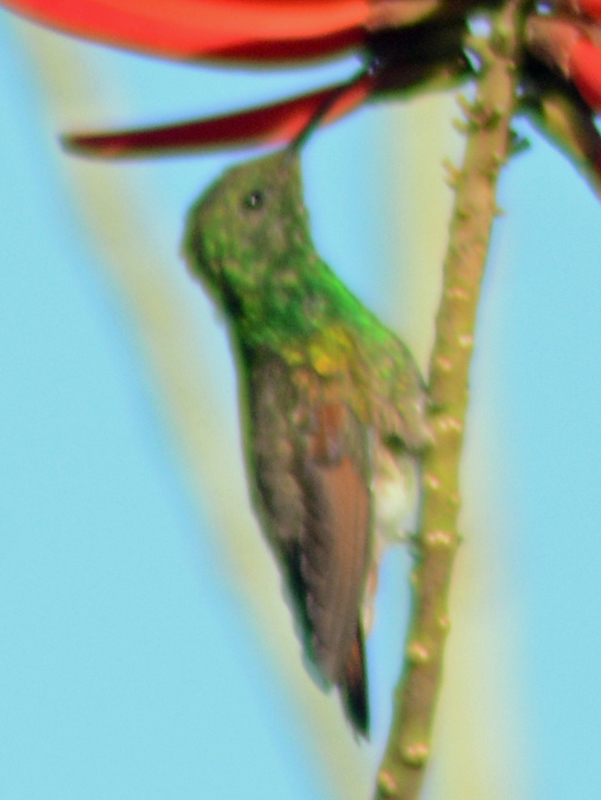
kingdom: Animalia
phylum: Chordata
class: Aves
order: Apodiformes
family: Trochilidae
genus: Saucerottia
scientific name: Saucerottia beryllina
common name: Berylline hummingbird
